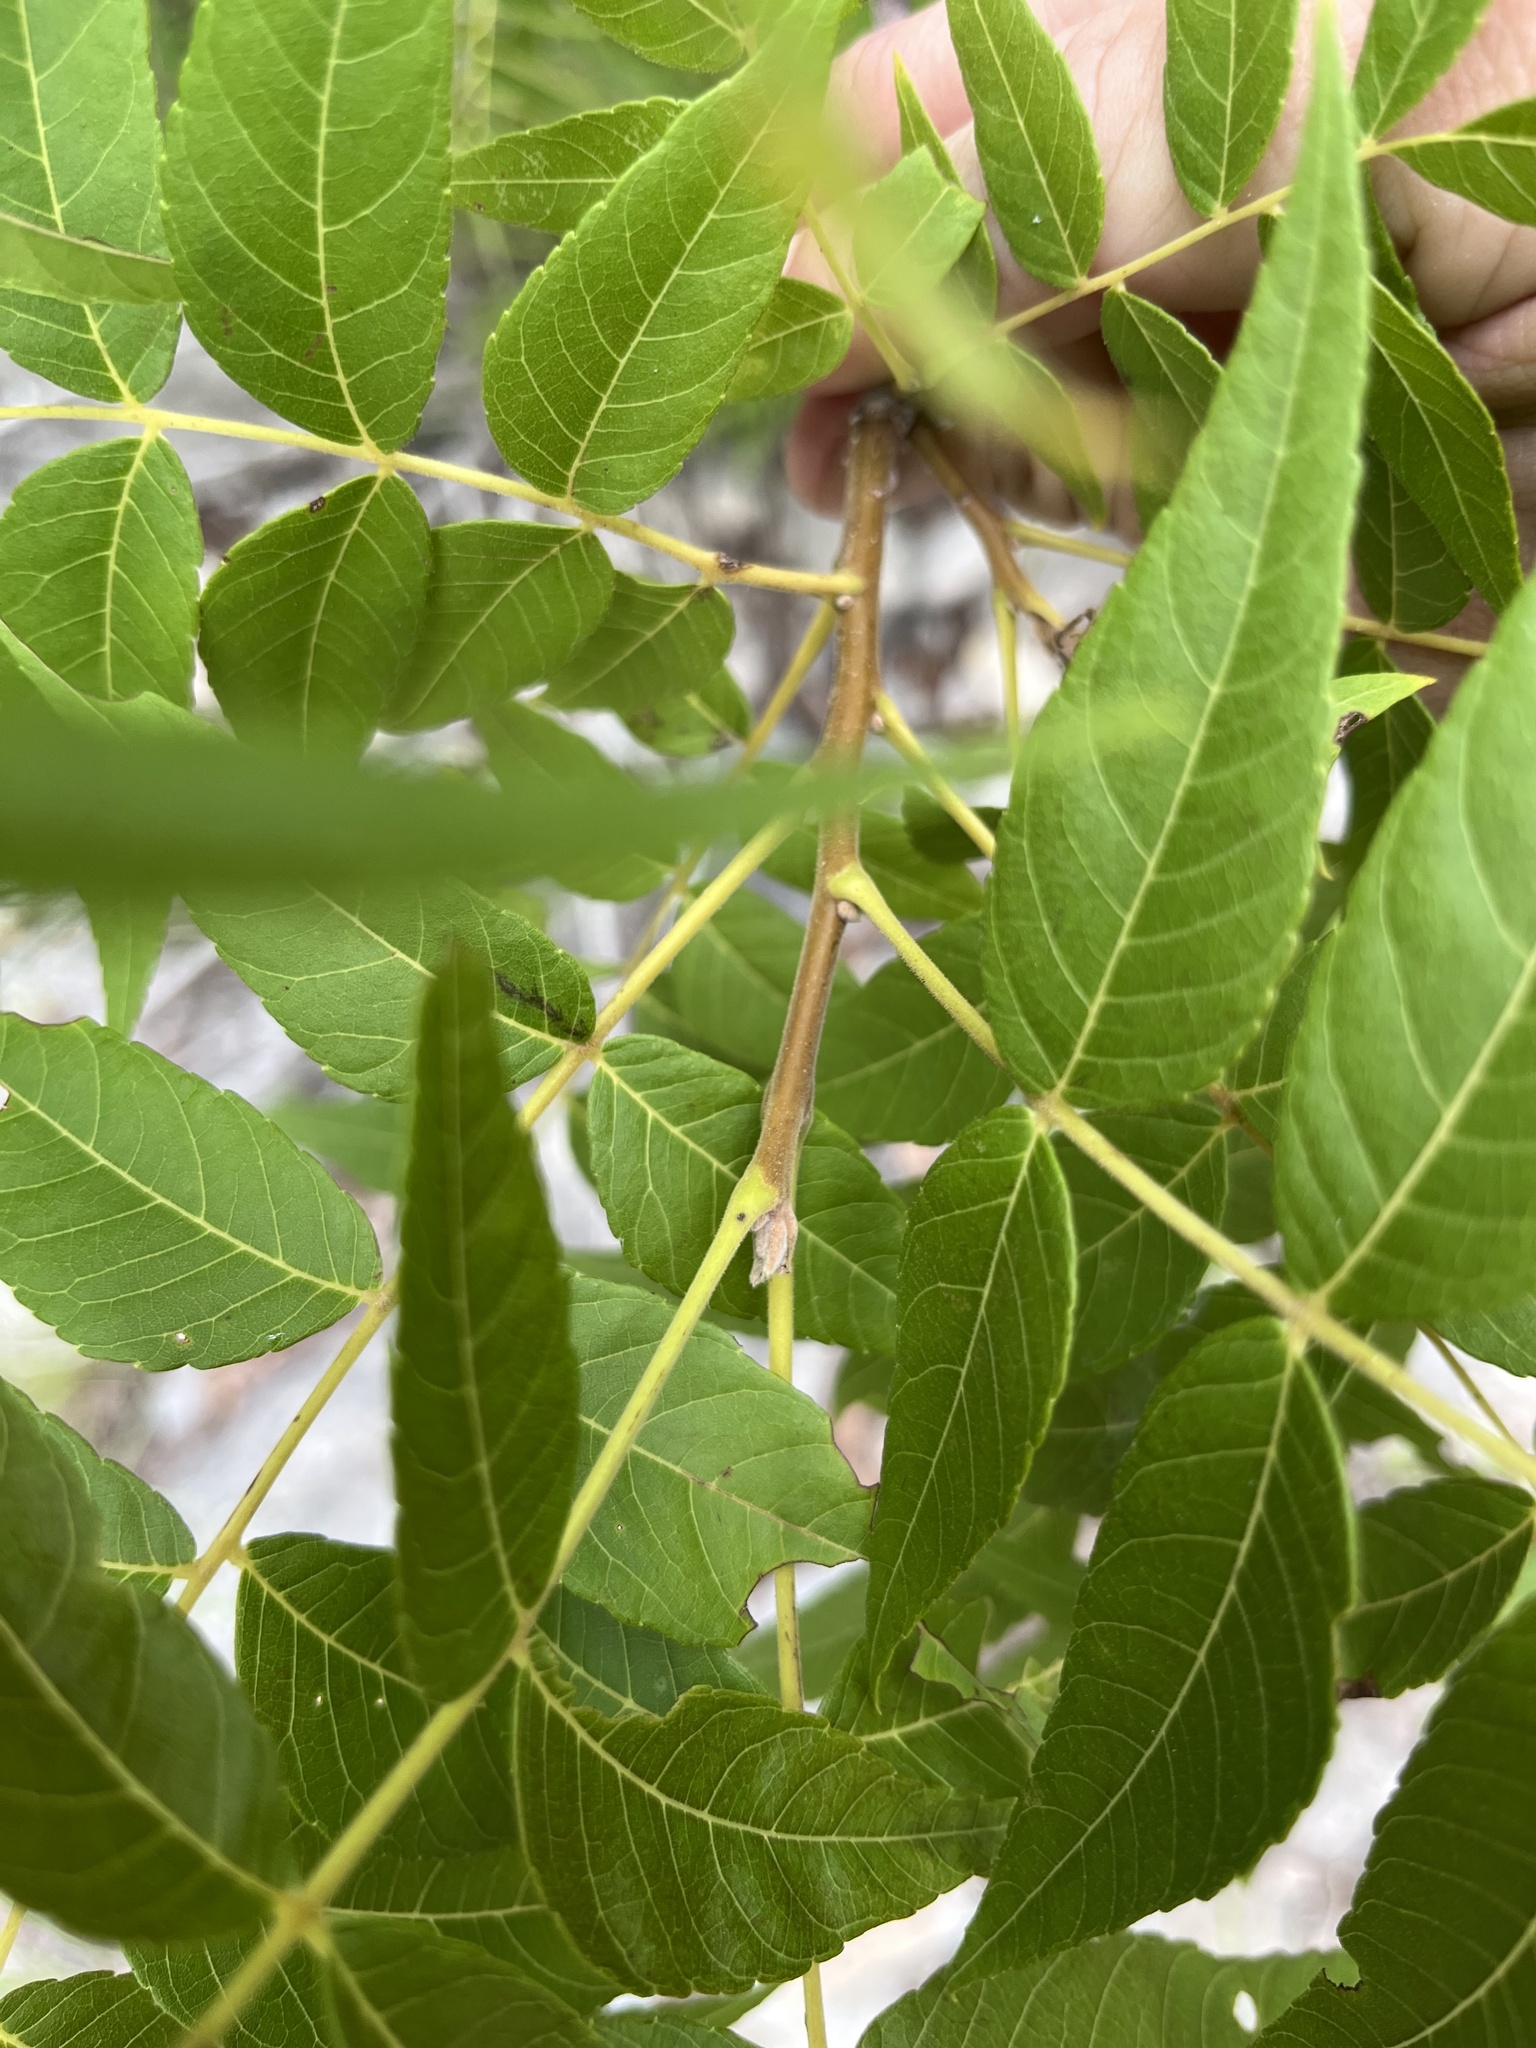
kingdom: Plantae
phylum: Tracheophyta
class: Magnoliopsida
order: Fagales
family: Juglandaceae
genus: Juglans
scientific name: Juglans microcarpa
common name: Texas walnut
